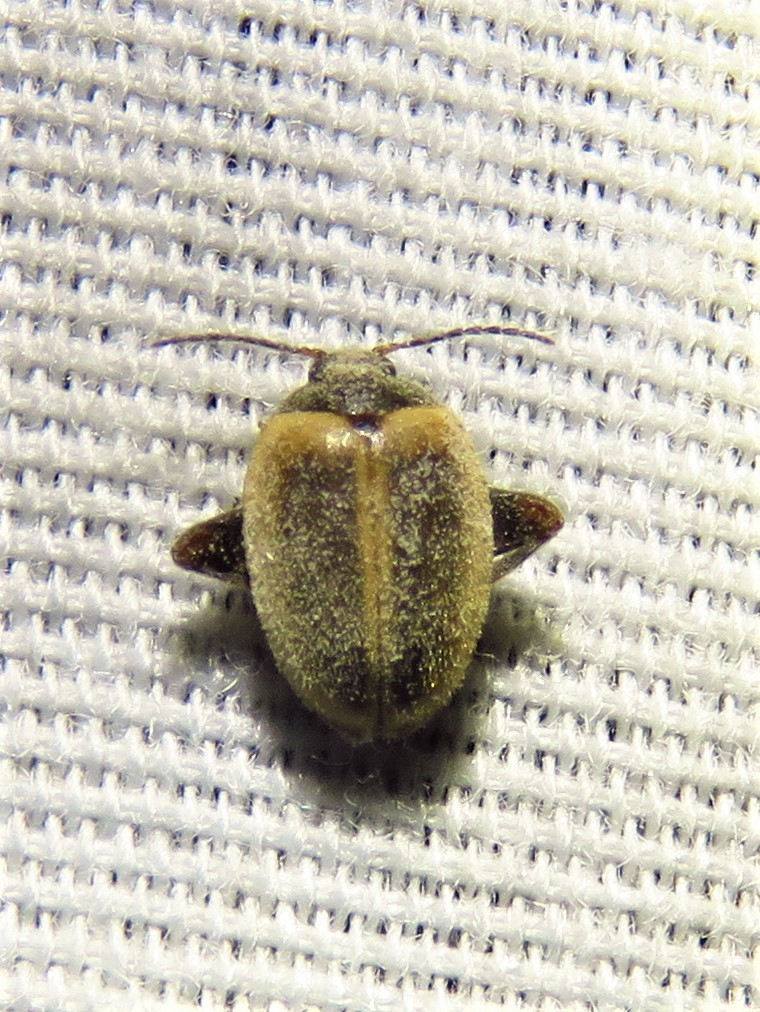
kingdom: Animalia
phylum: Arthropoda
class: Insecta
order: Coleoptera
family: Scirtidae
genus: Ora
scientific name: Ora discoidea
